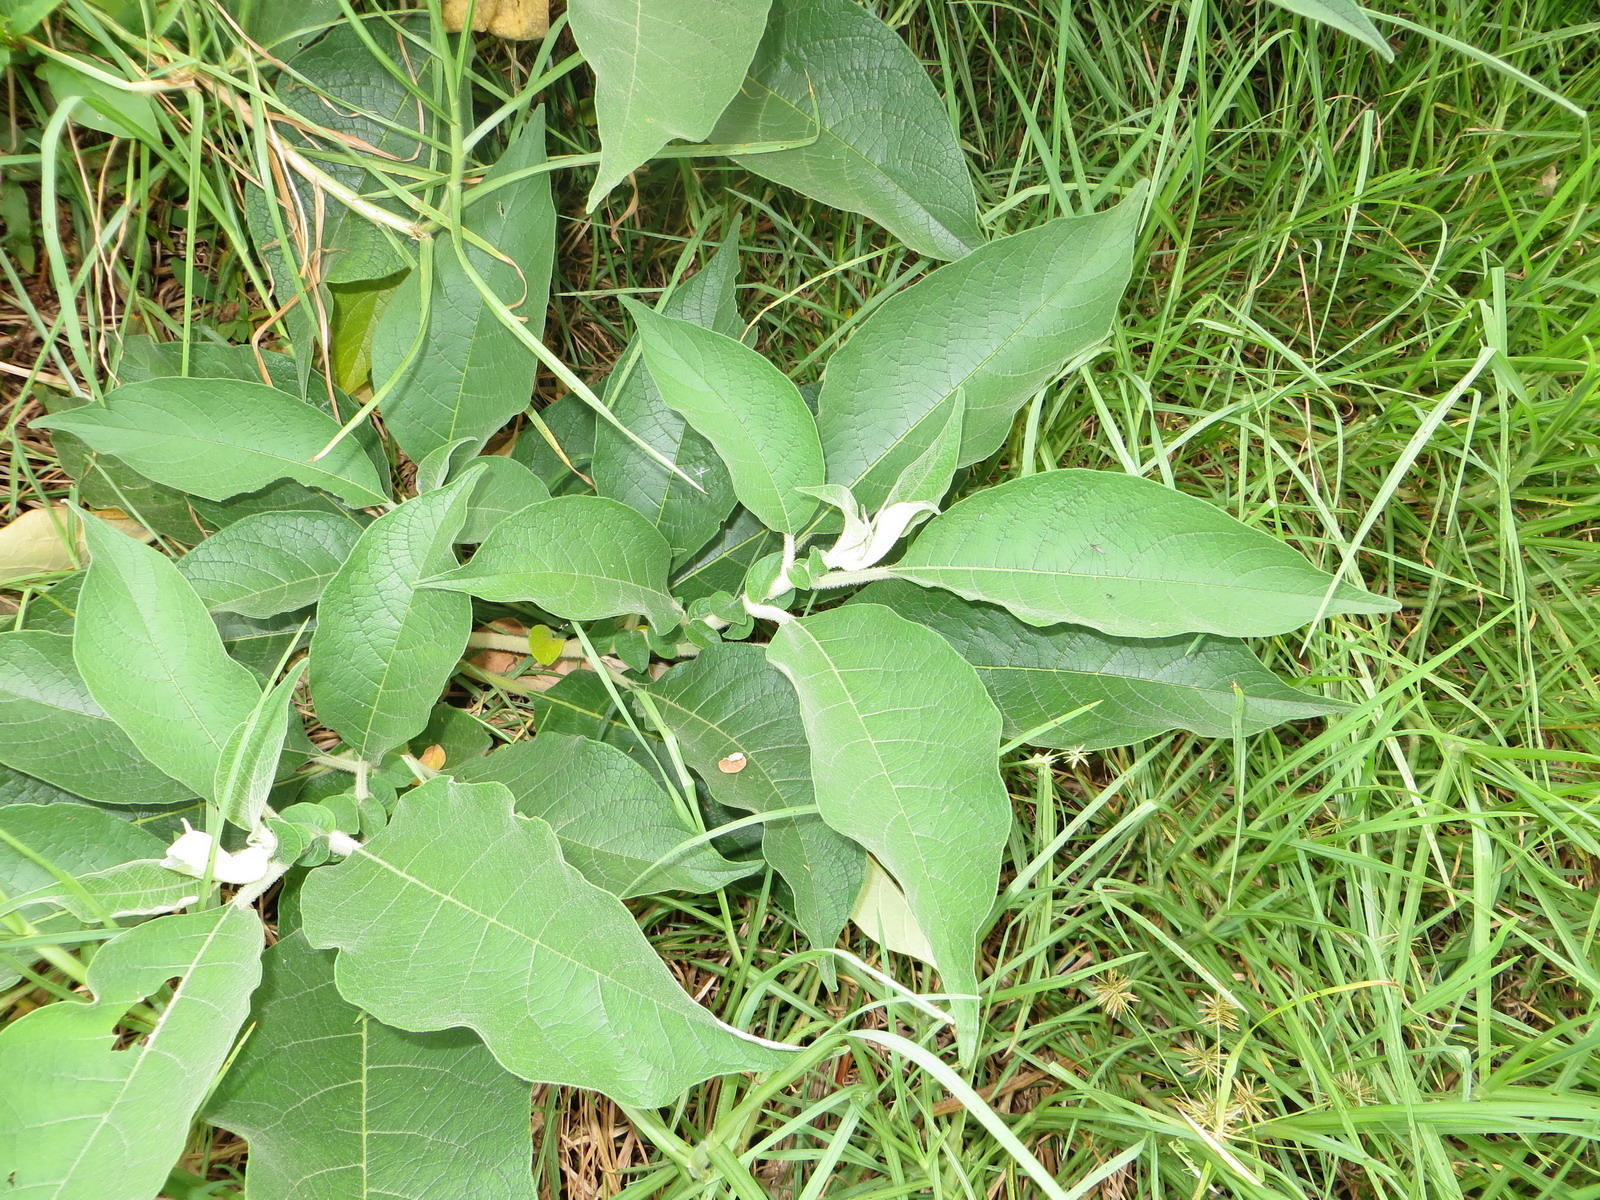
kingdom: Plantae
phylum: Tracheophyta
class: Magnoliopsida
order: Solanales
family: Solanaceae
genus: Solanum
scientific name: Solanum mauritianum
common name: Earleaf nightshade
